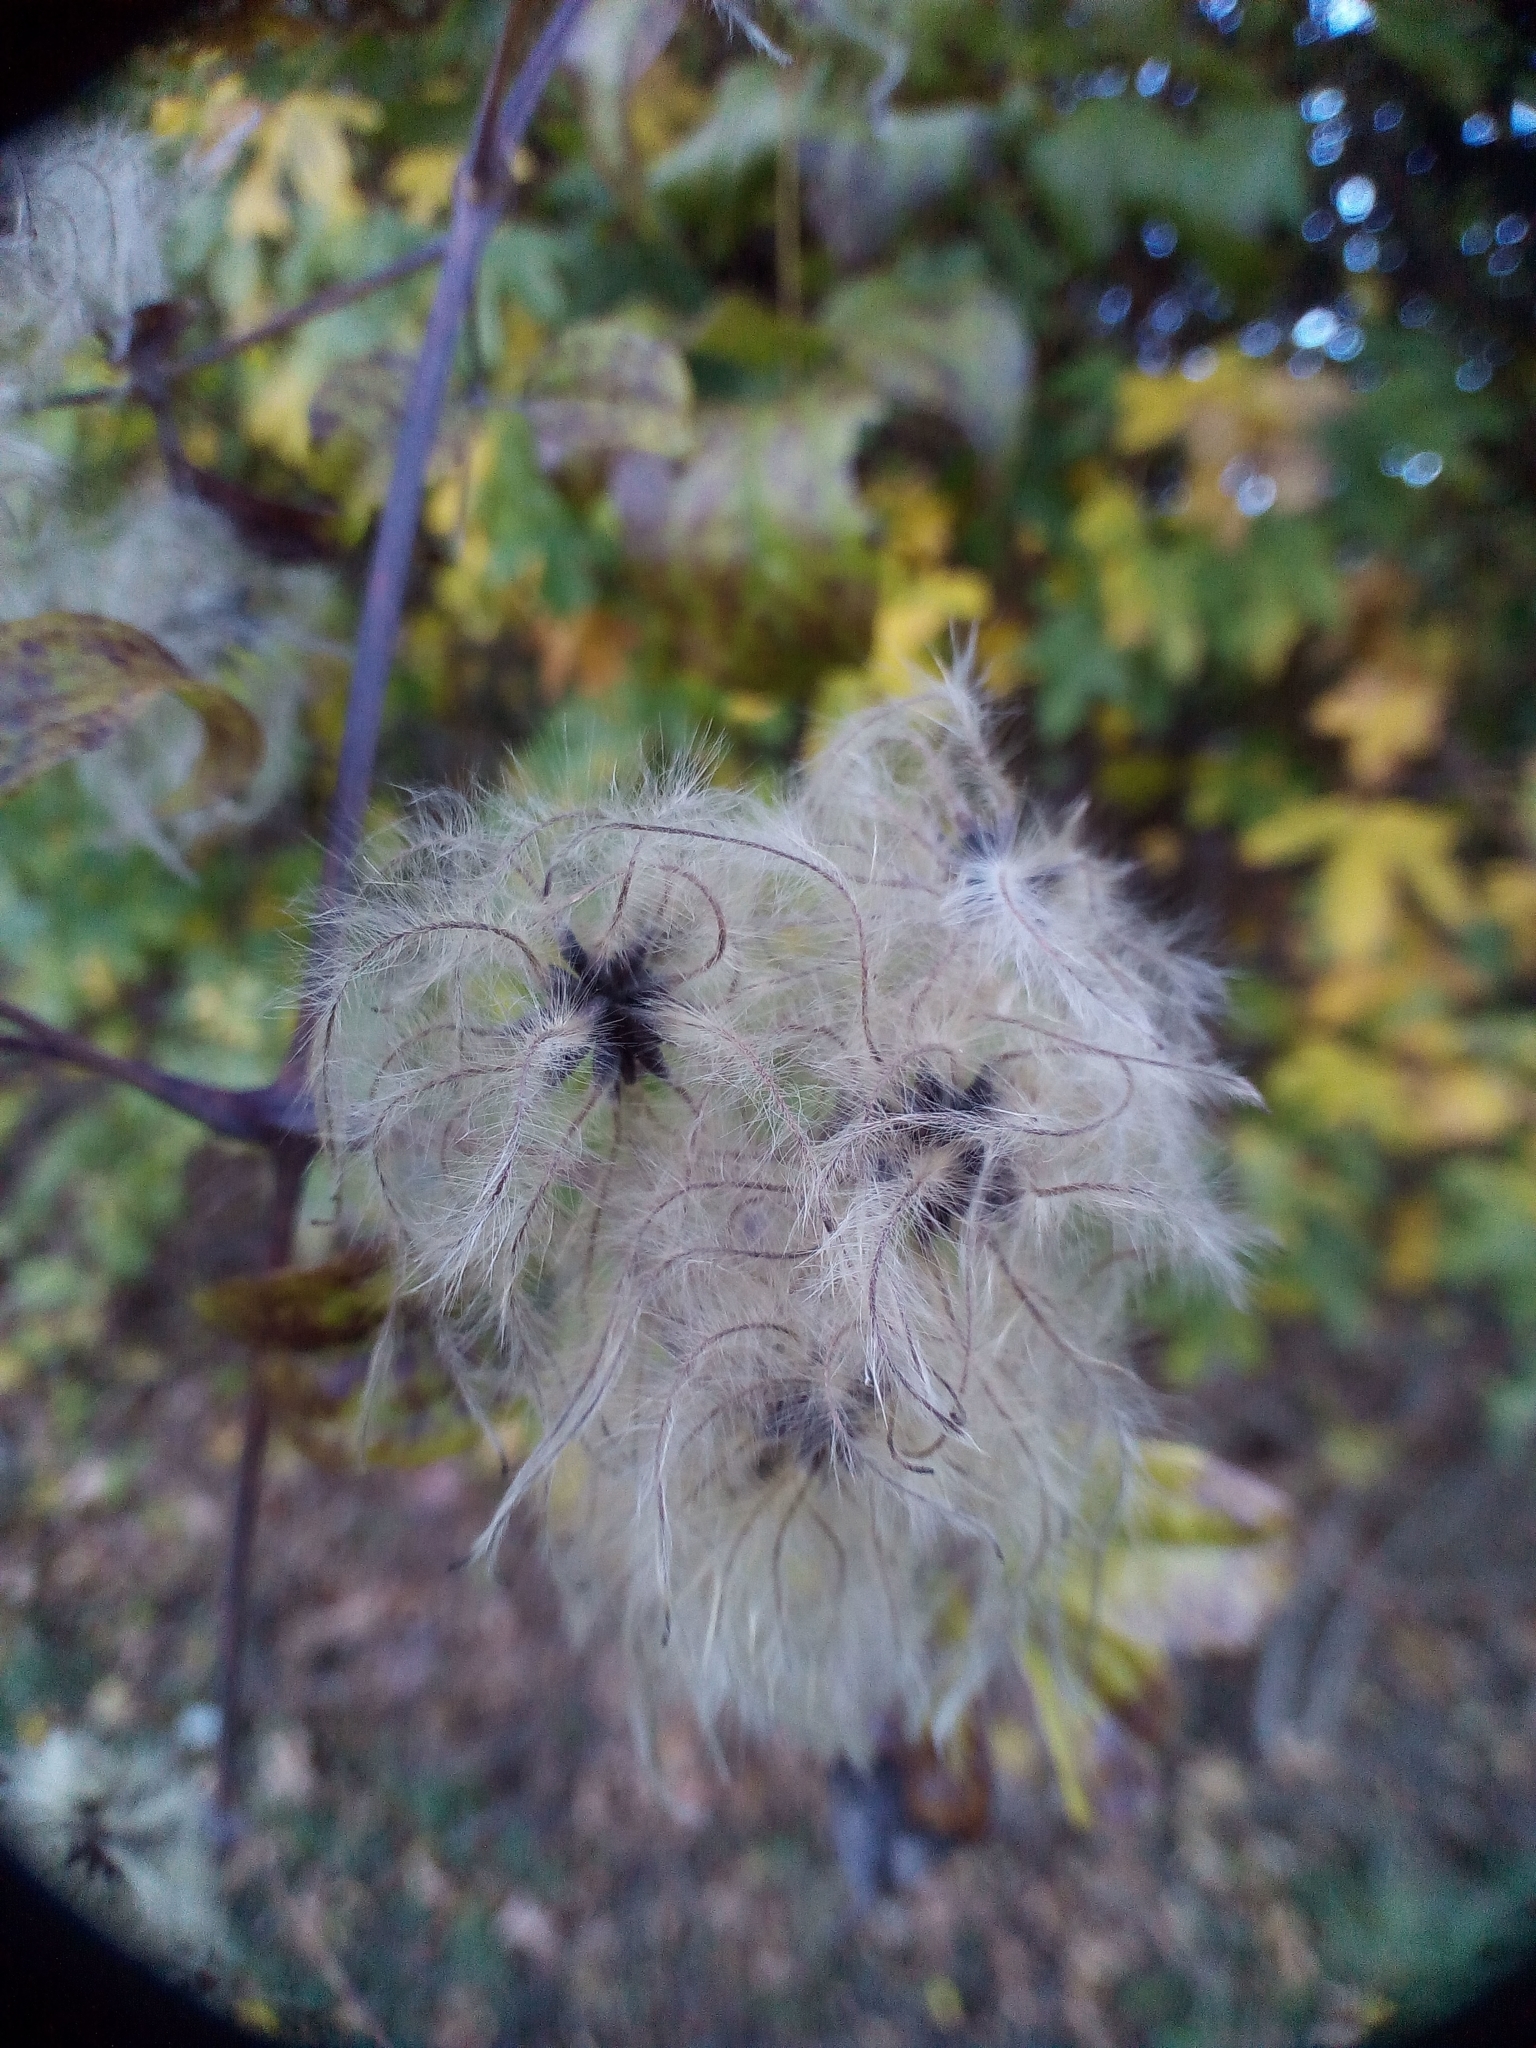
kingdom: Plantae
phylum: Tracheophyta
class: Magnoliopsida
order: Ranunculales
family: Ranunculaceae
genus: Clematis
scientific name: Clematis vitalba
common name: Evergreen clematis
